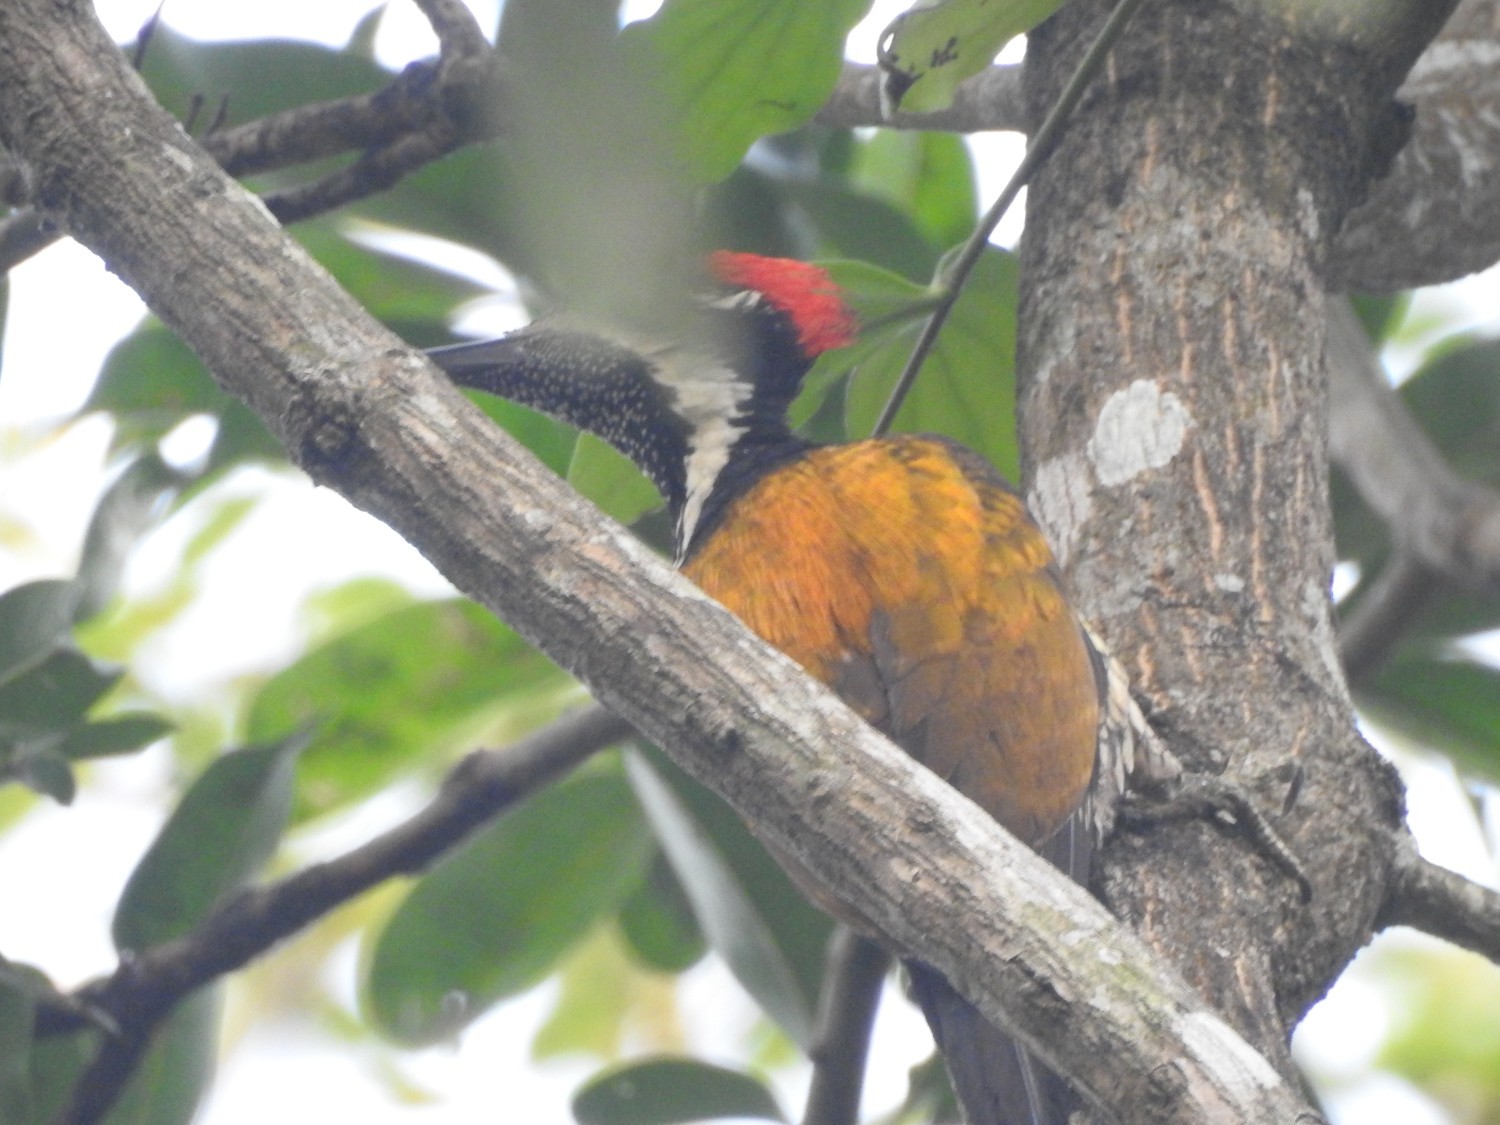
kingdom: Animalia
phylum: Chordata
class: Aves
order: Piciformes
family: Picidae
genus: Dinopium
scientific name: Dinopium benghalense
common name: Black-rumped flameback
